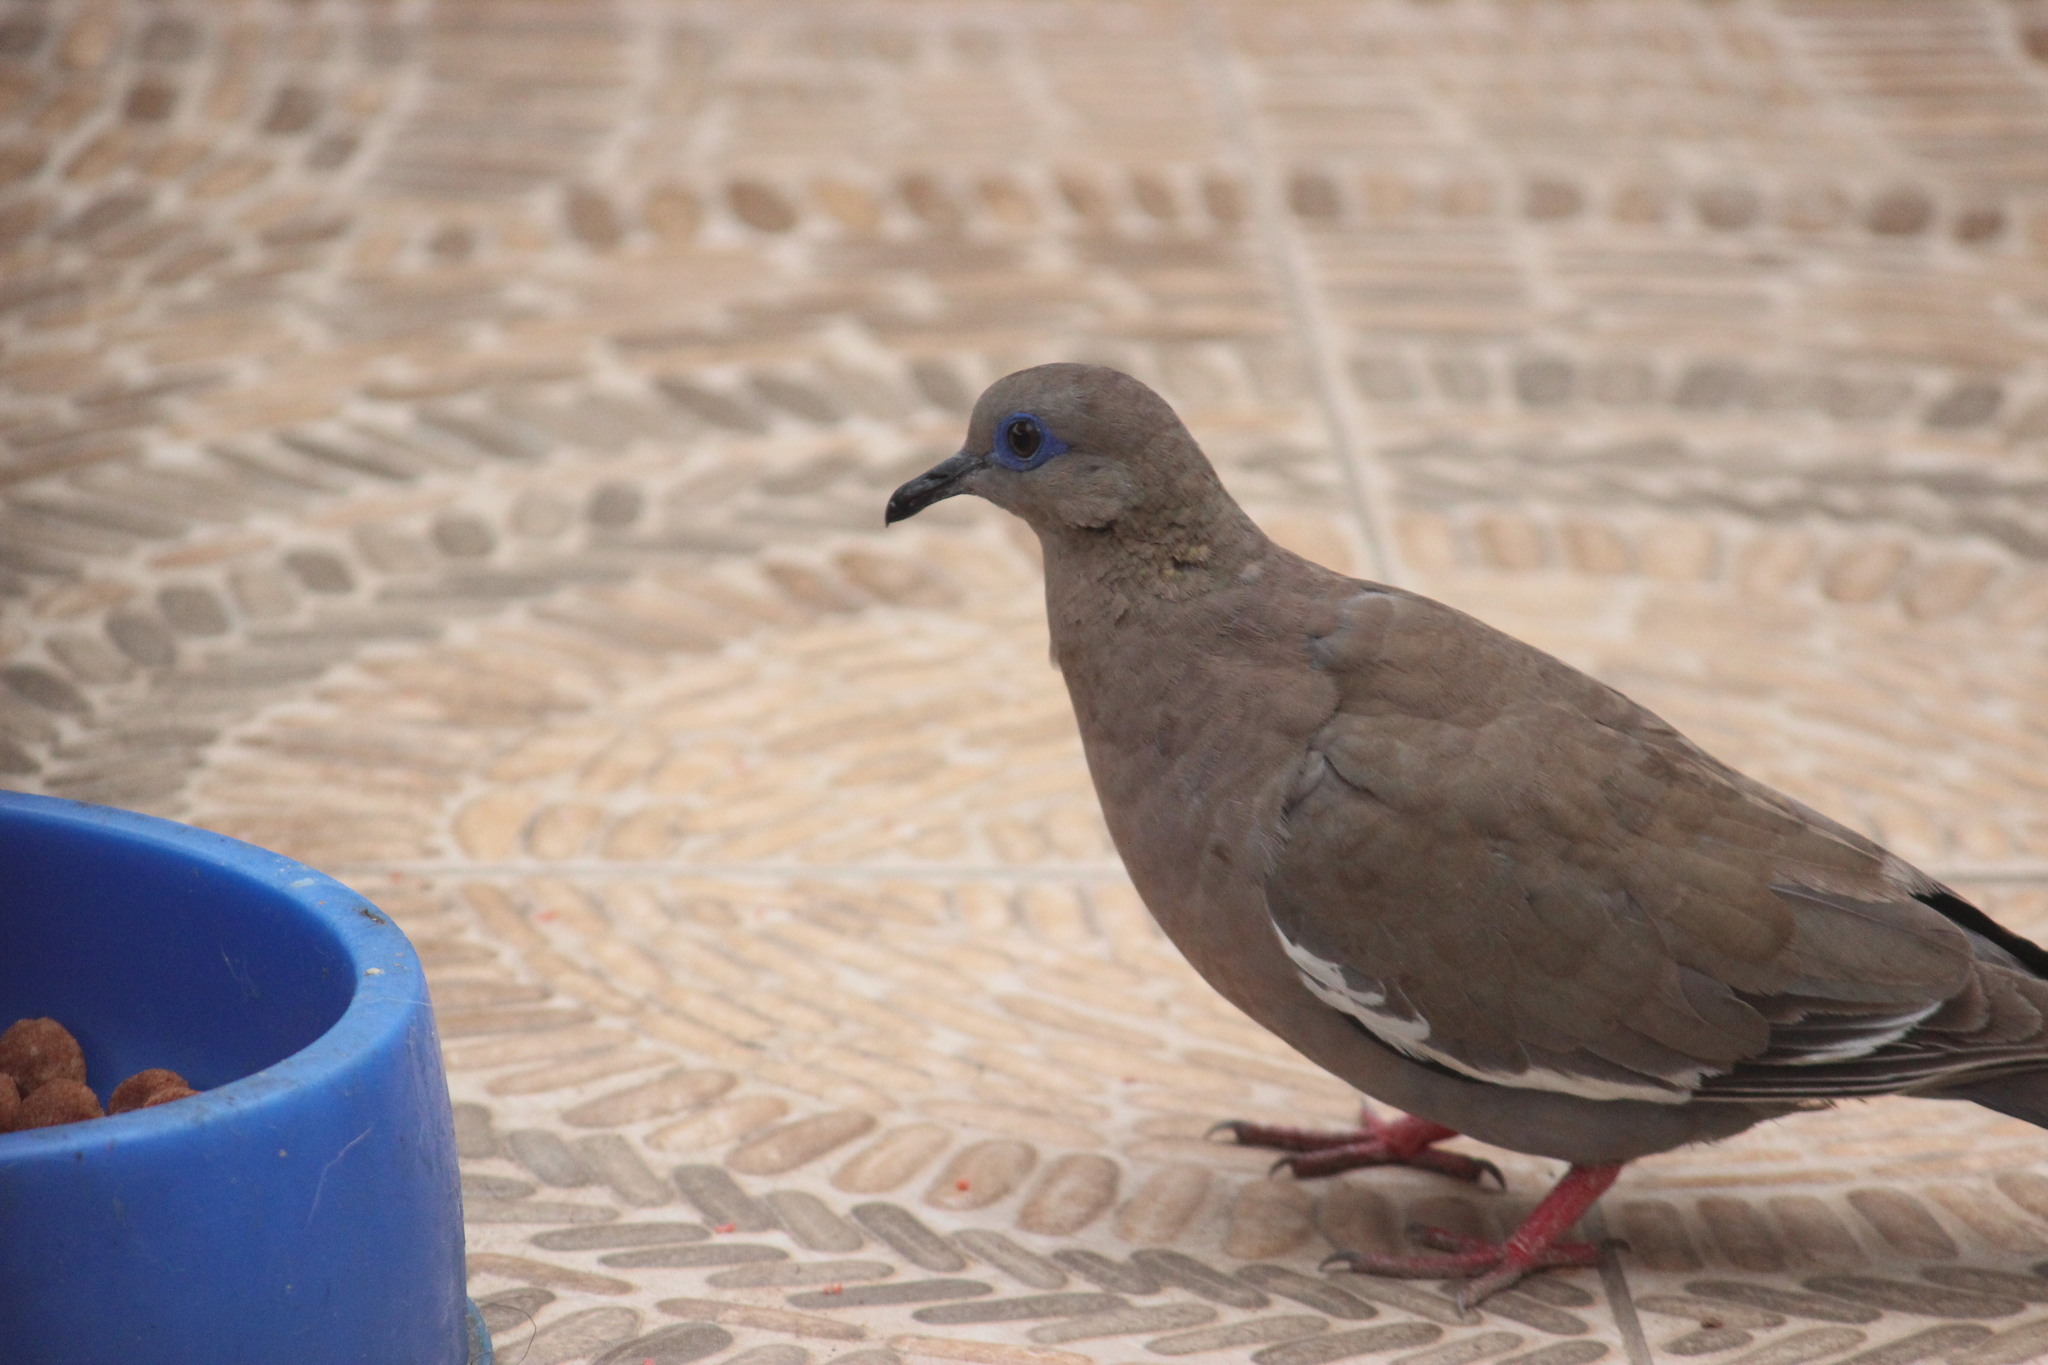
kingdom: Animalia
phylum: Chordata
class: Aves
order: Columbiformes
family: Columbidae
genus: Zenaida
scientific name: Zenaida meloda
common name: West peruvian dove
